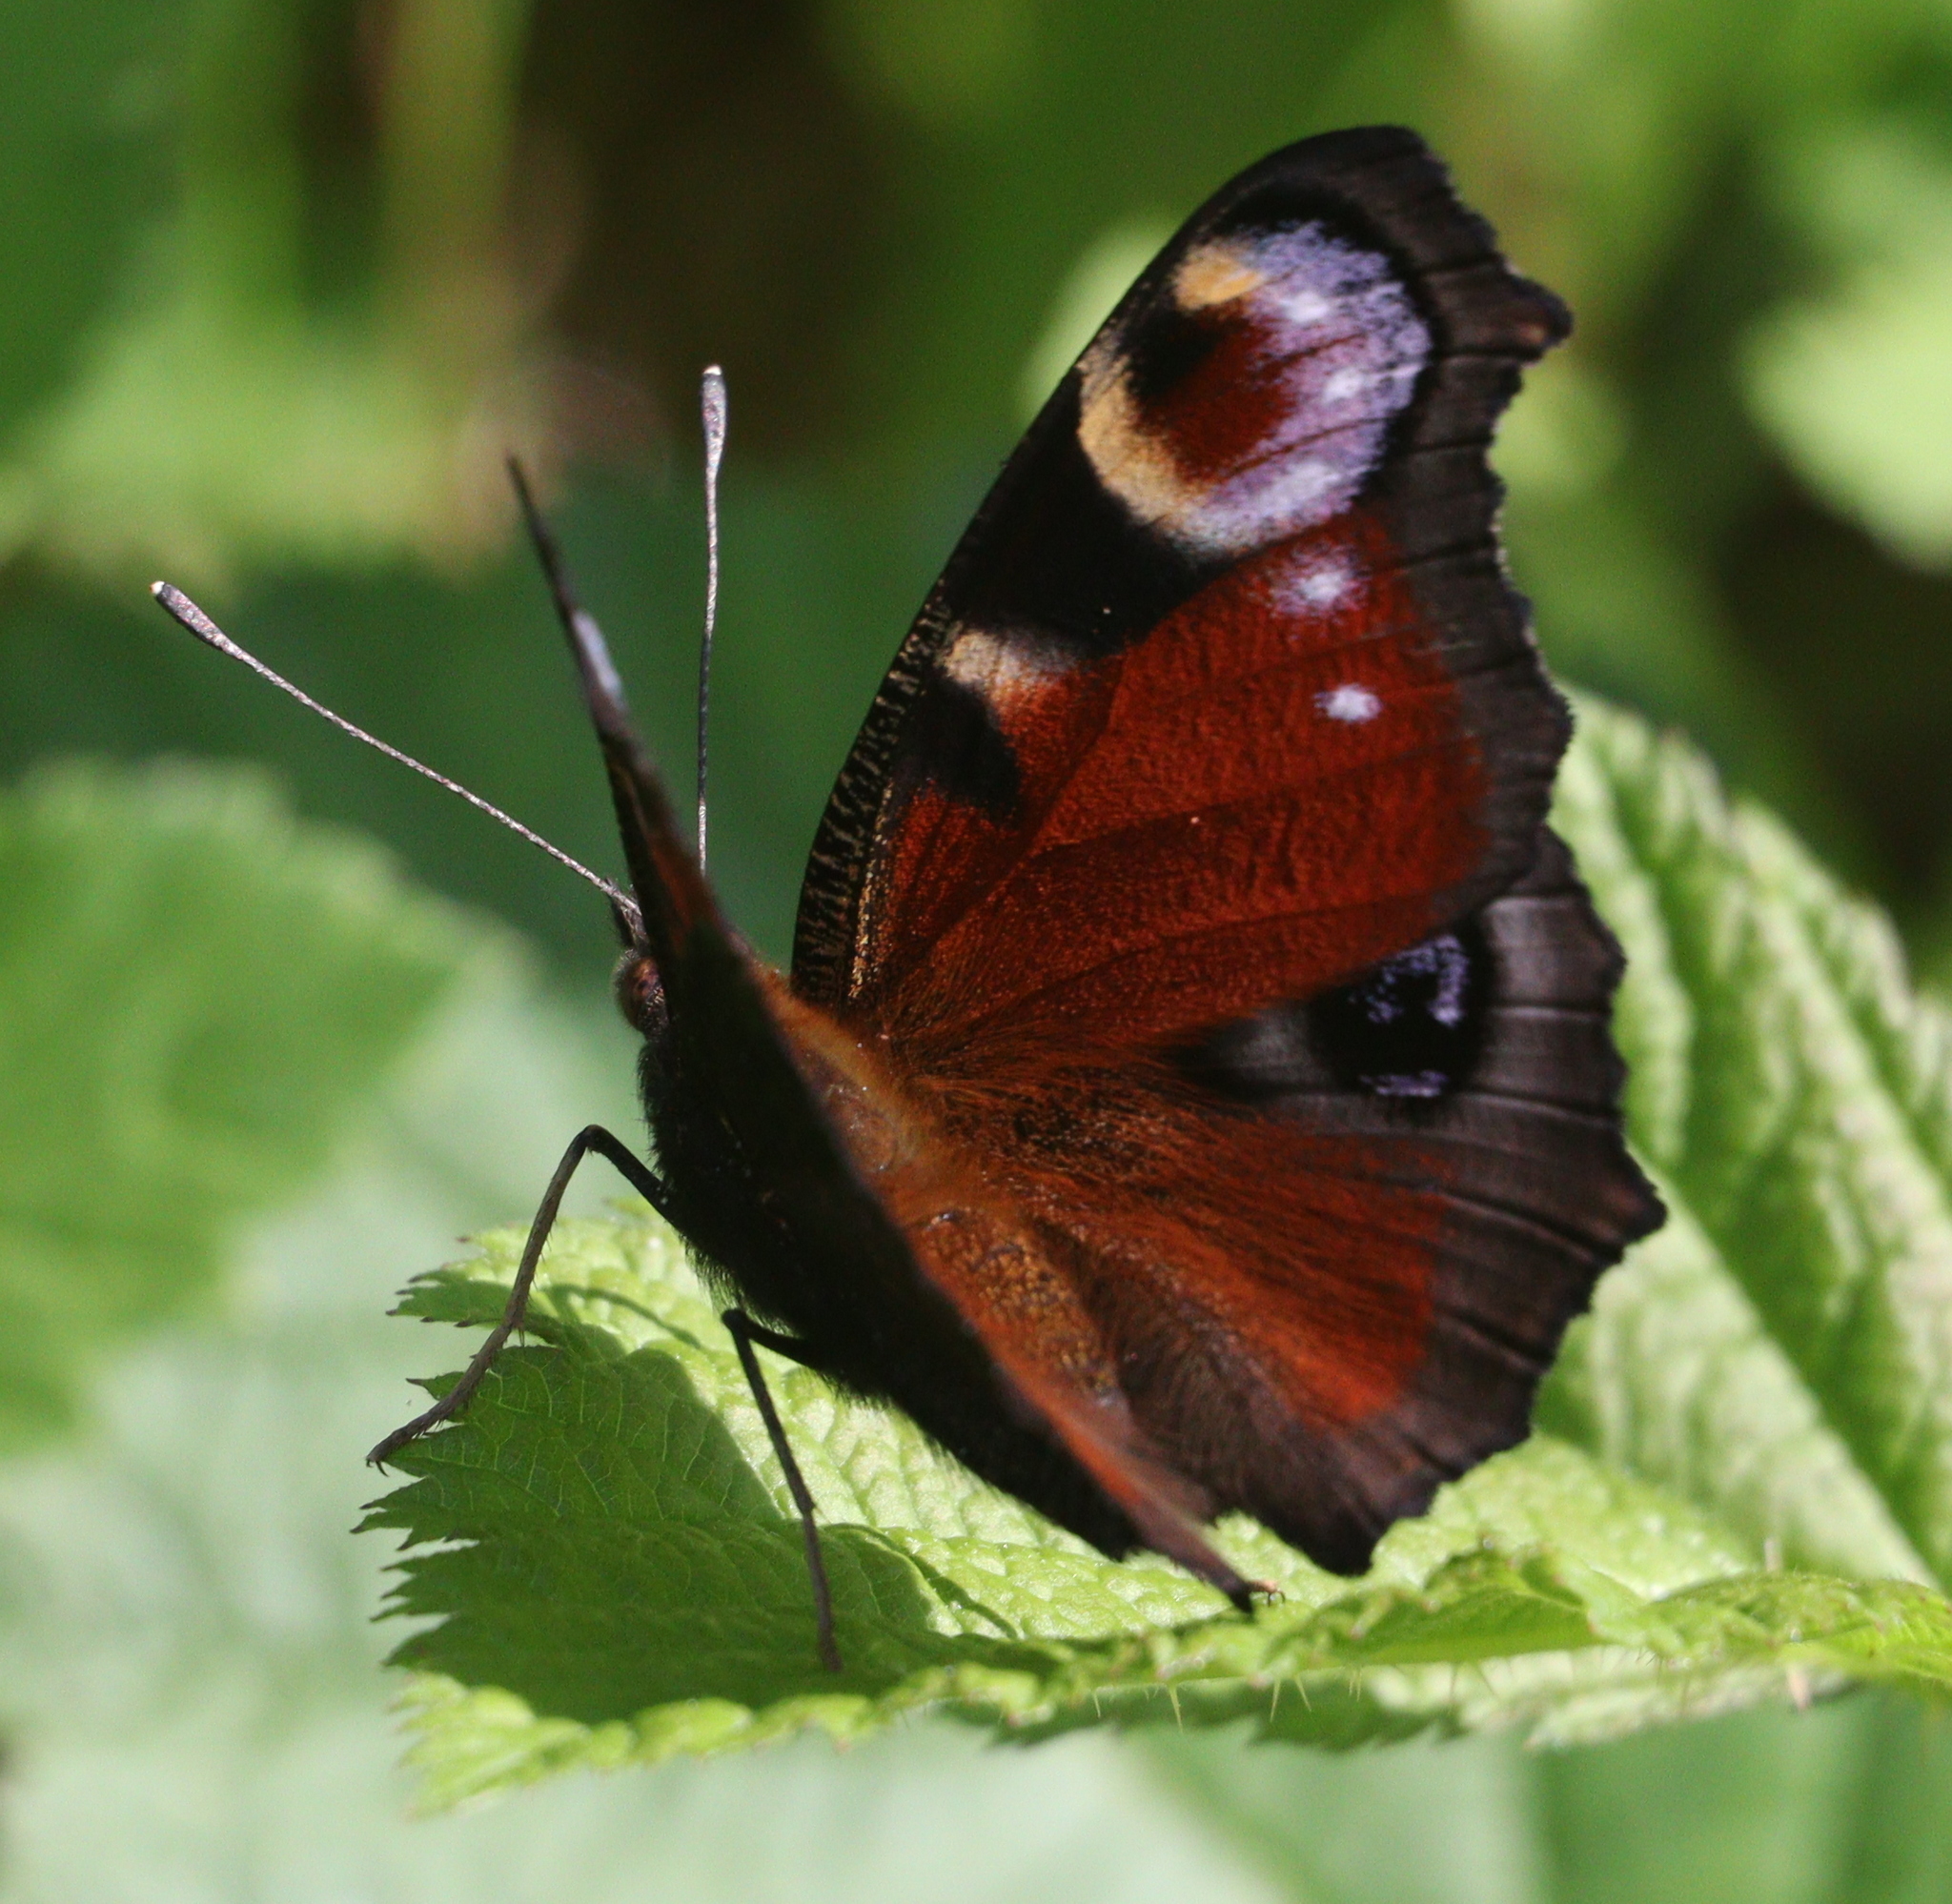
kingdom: Animalia
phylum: Arthropoda
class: Insecta
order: Lepidoptera
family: Nymphalidae
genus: Aglais
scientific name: Aglais io
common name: Peacock
